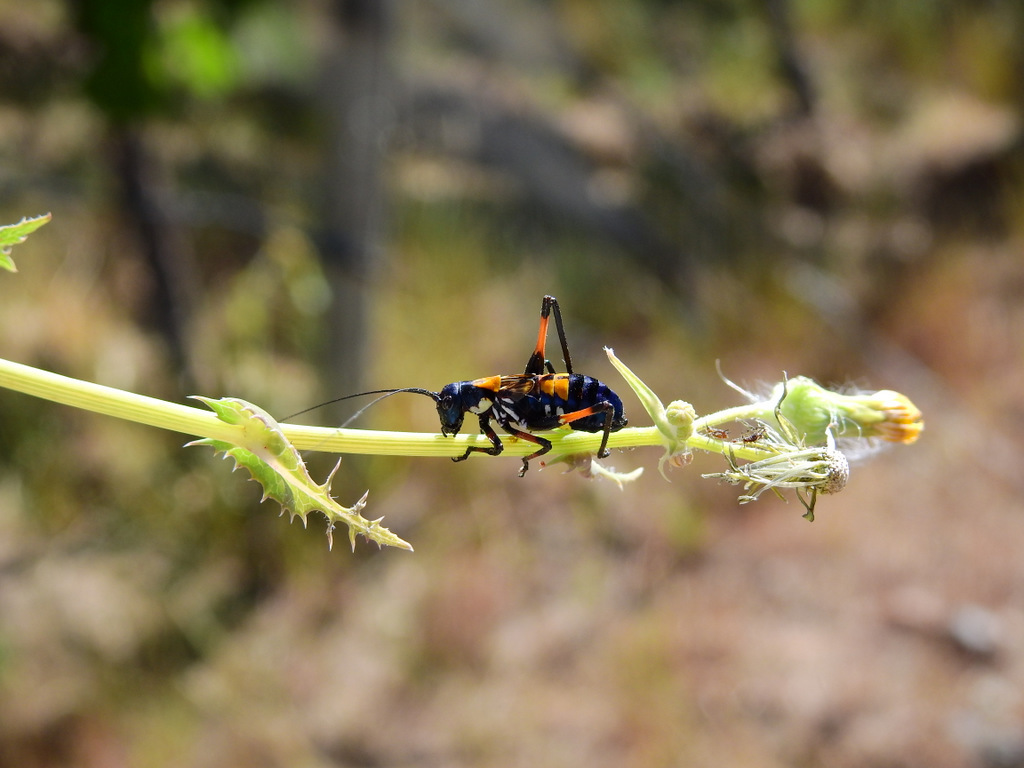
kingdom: Animalia
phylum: Arthropoda
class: Insecta
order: Orthoptera
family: Tettigoniidae
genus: Scaphura
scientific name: Scaphura elegans
